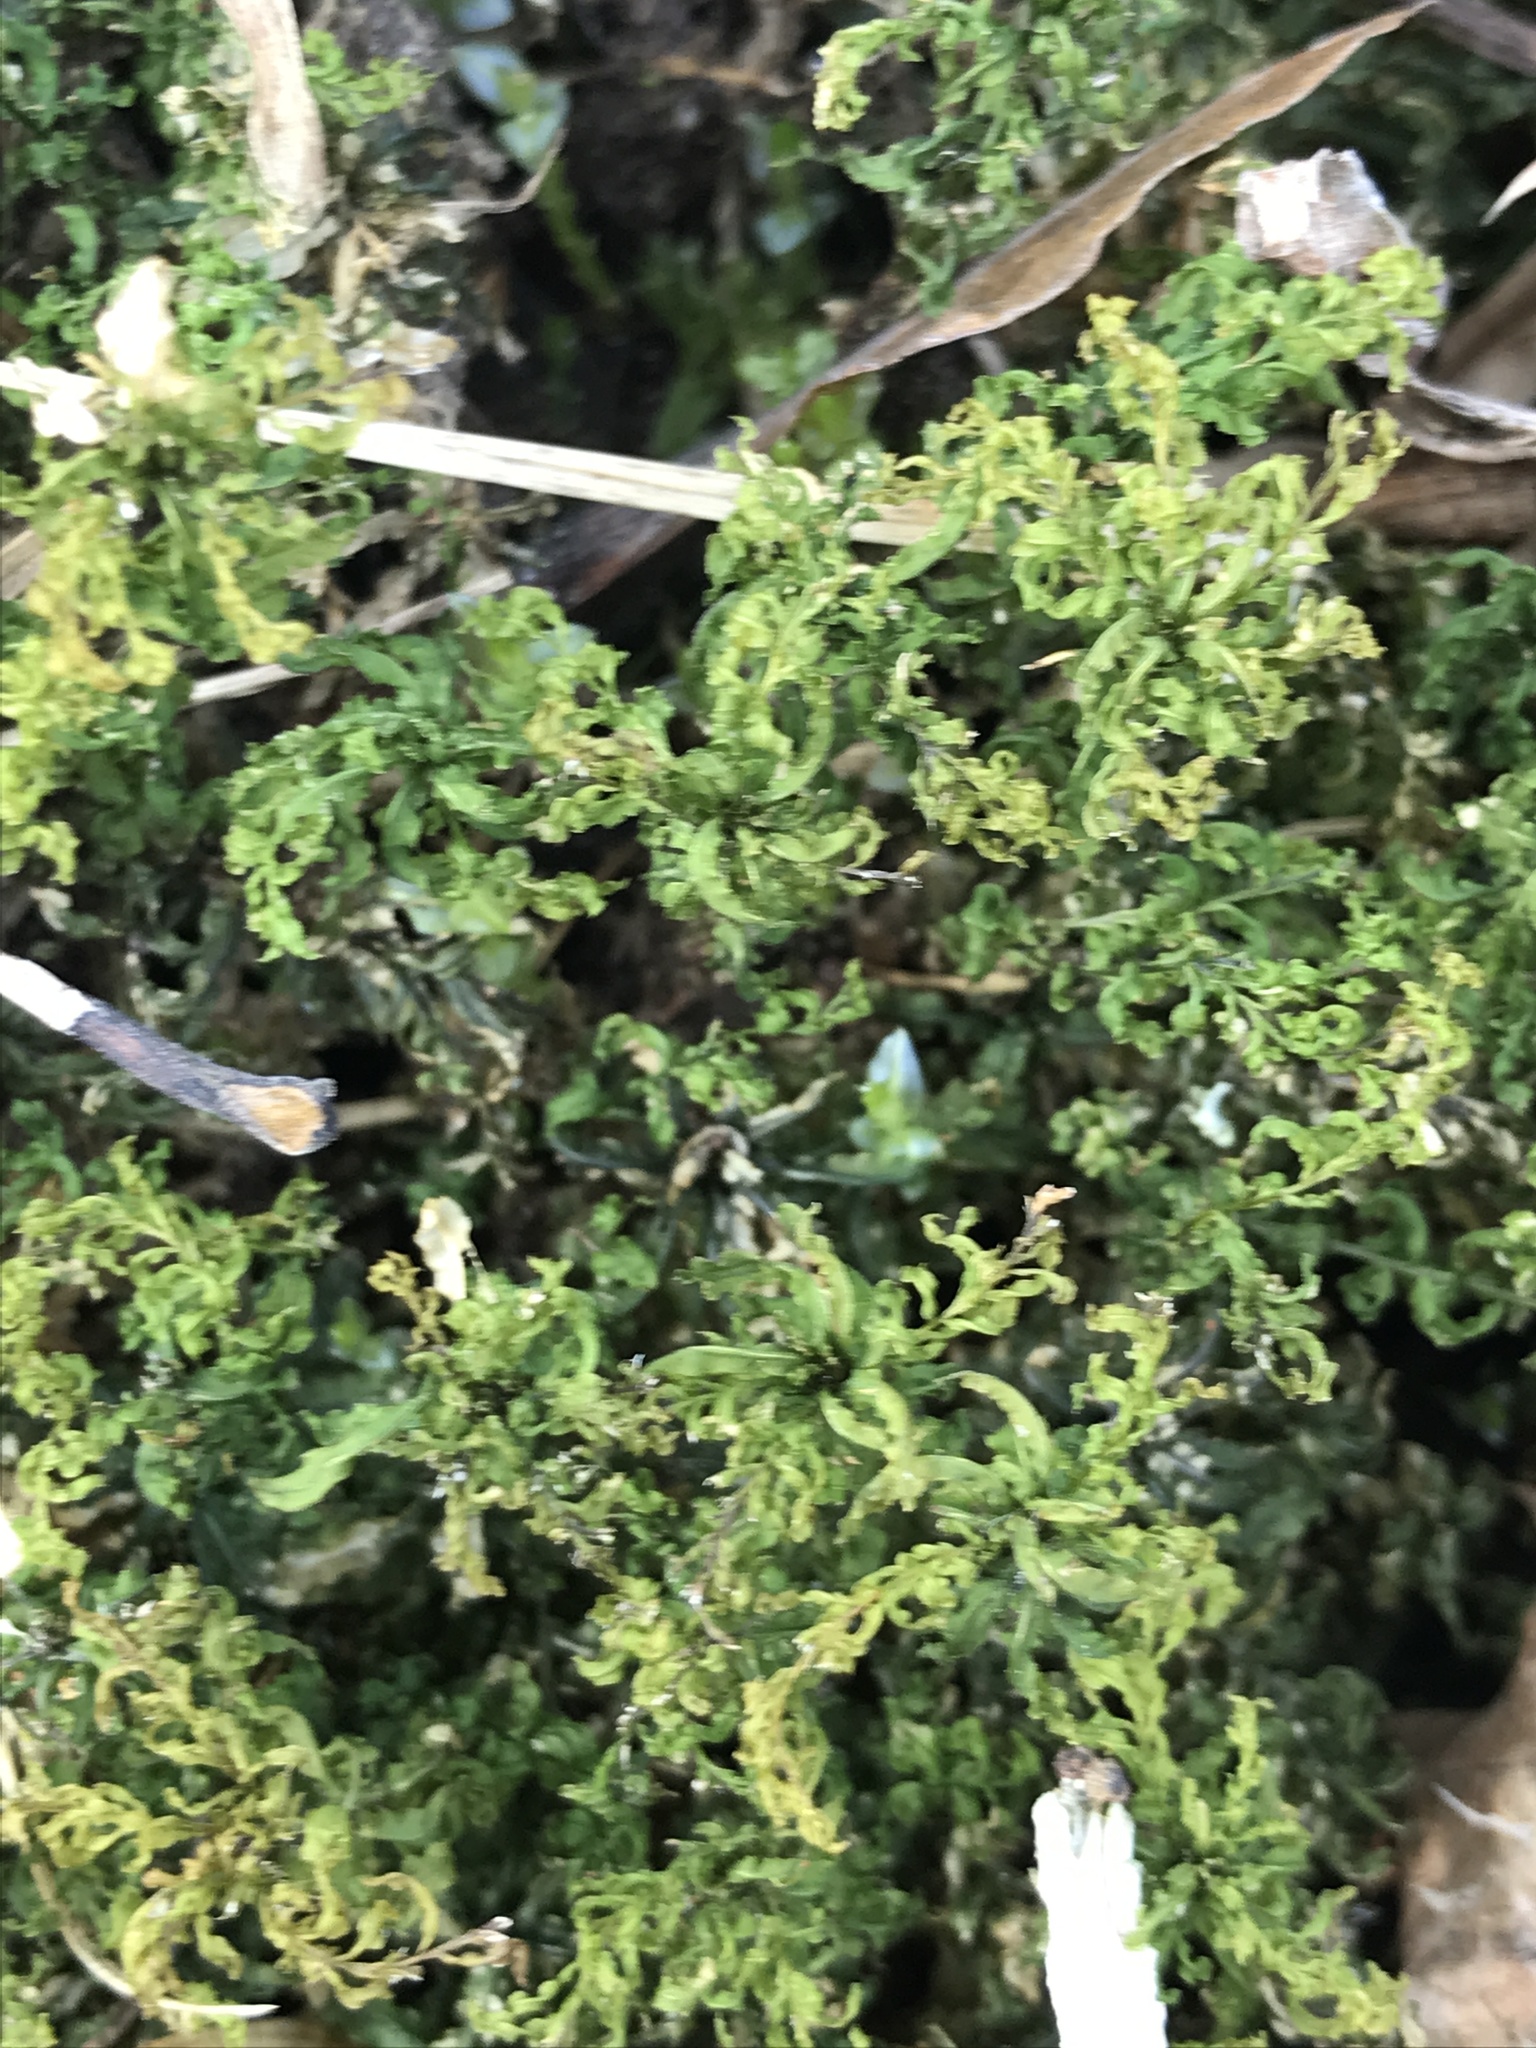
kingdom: Plantae
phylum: Bryophyta
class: Bryopsida
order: Bryales
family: Mniaceae
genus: Plagiomnium
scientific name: Plagiomnium undulatum
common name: Hart's-tongue thyme-moss
